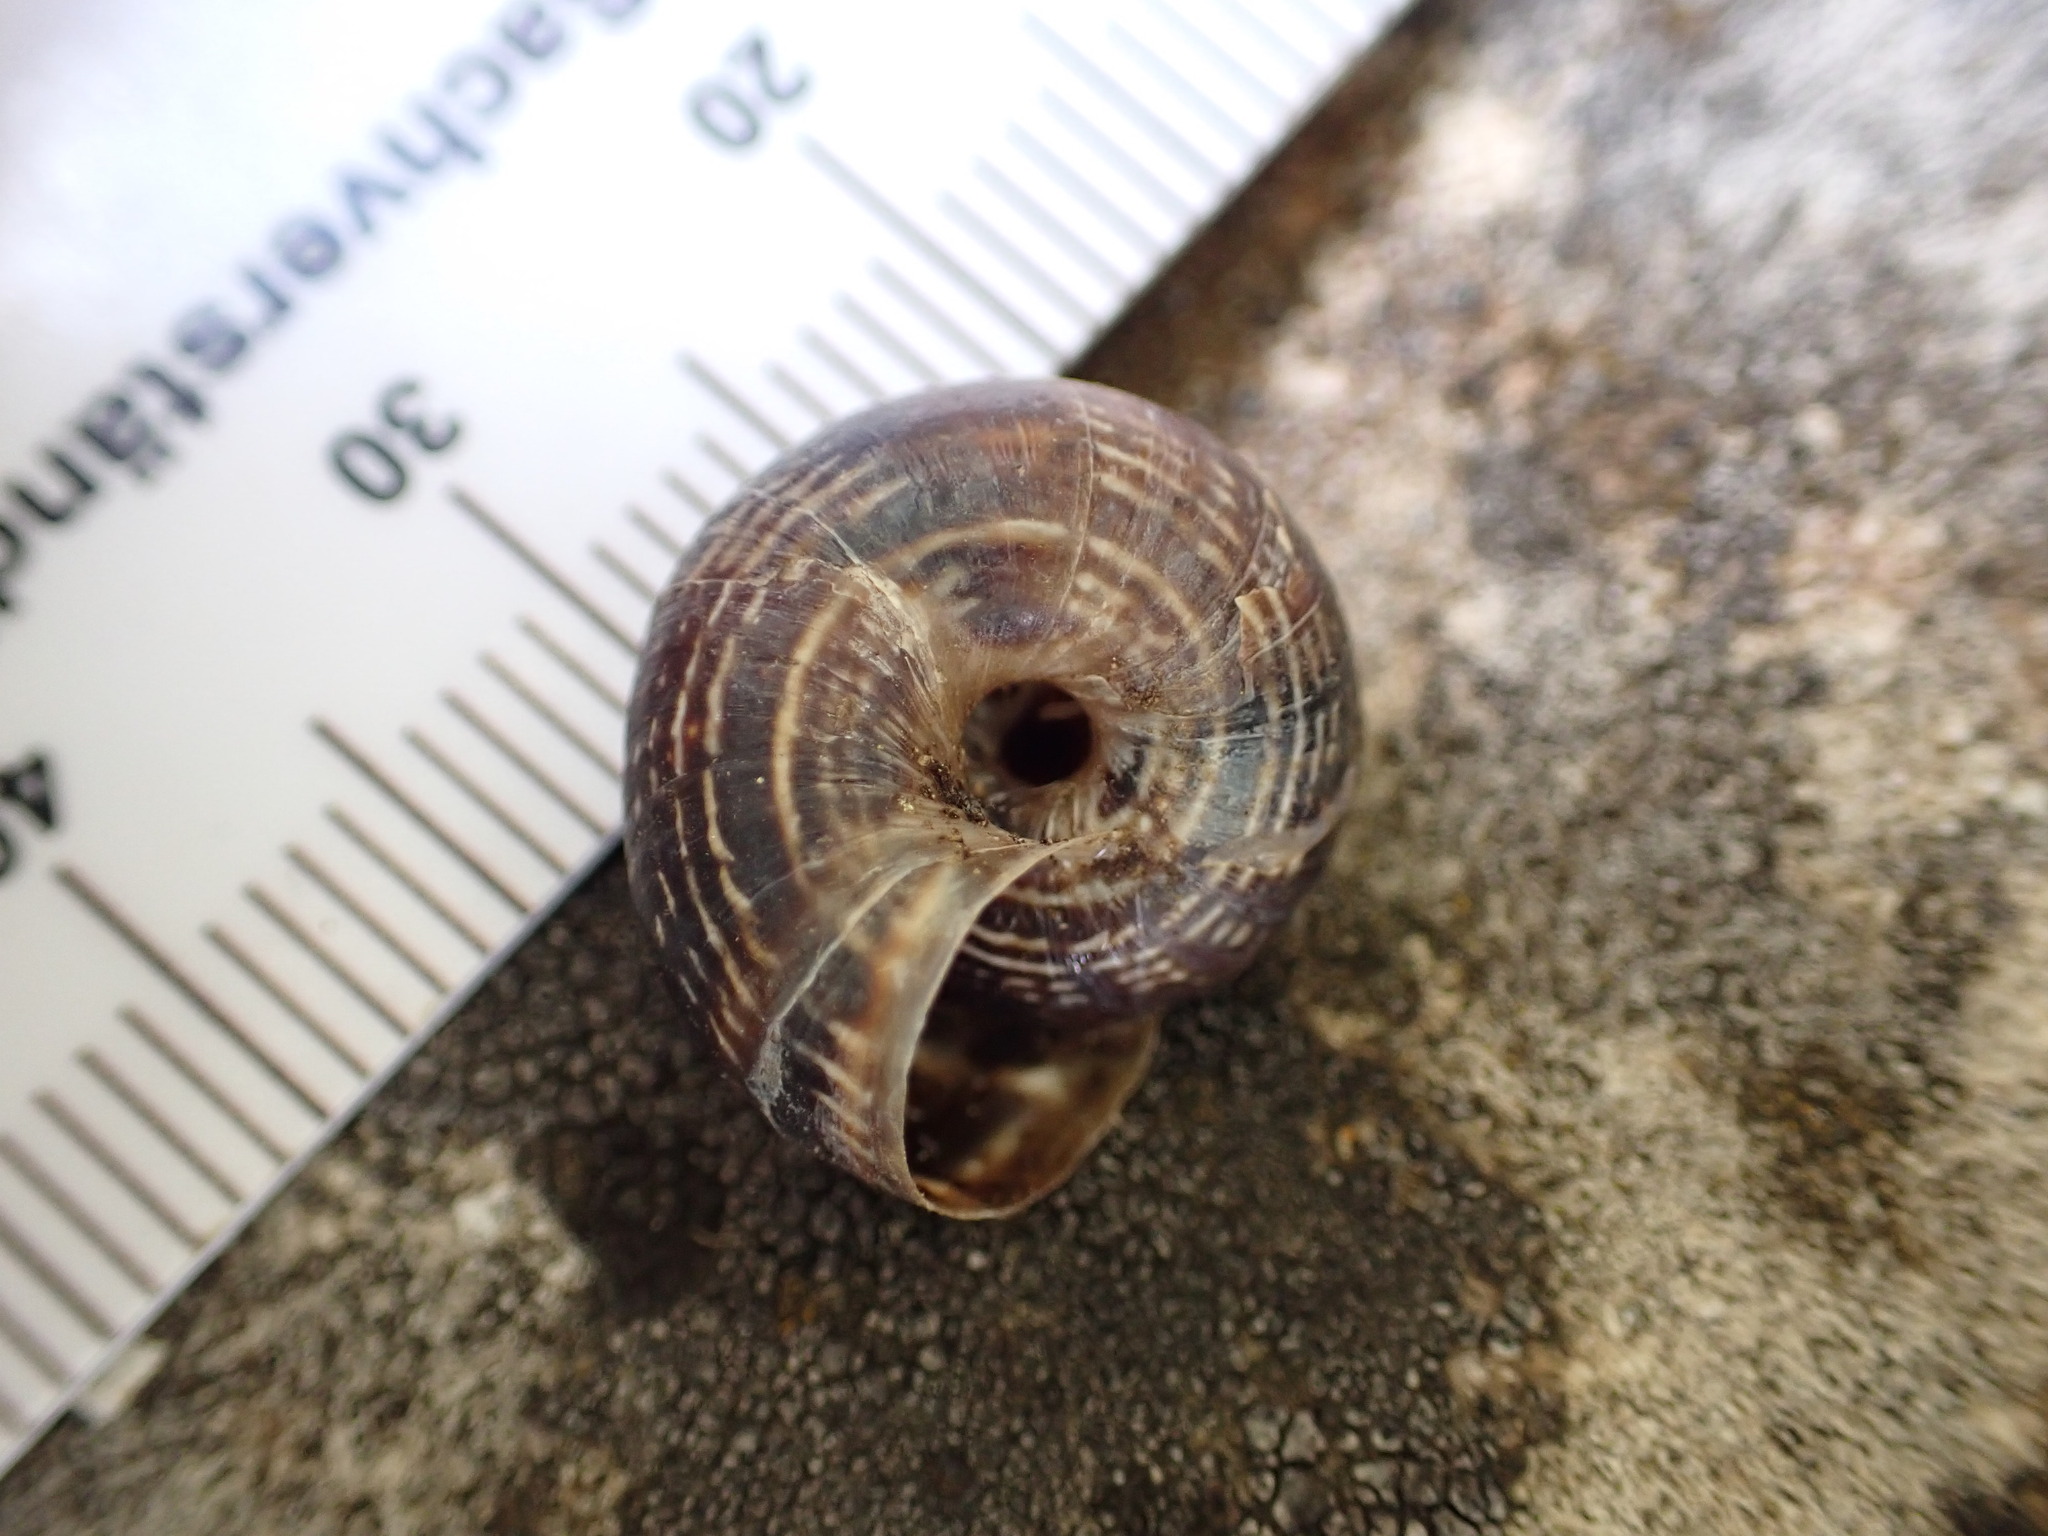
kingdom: Animalia
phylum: Mollusca
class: Gastropoda
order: Stylommatophora
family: Geomitridae
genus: Xerosecta
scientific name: Xerosecta cespitum
